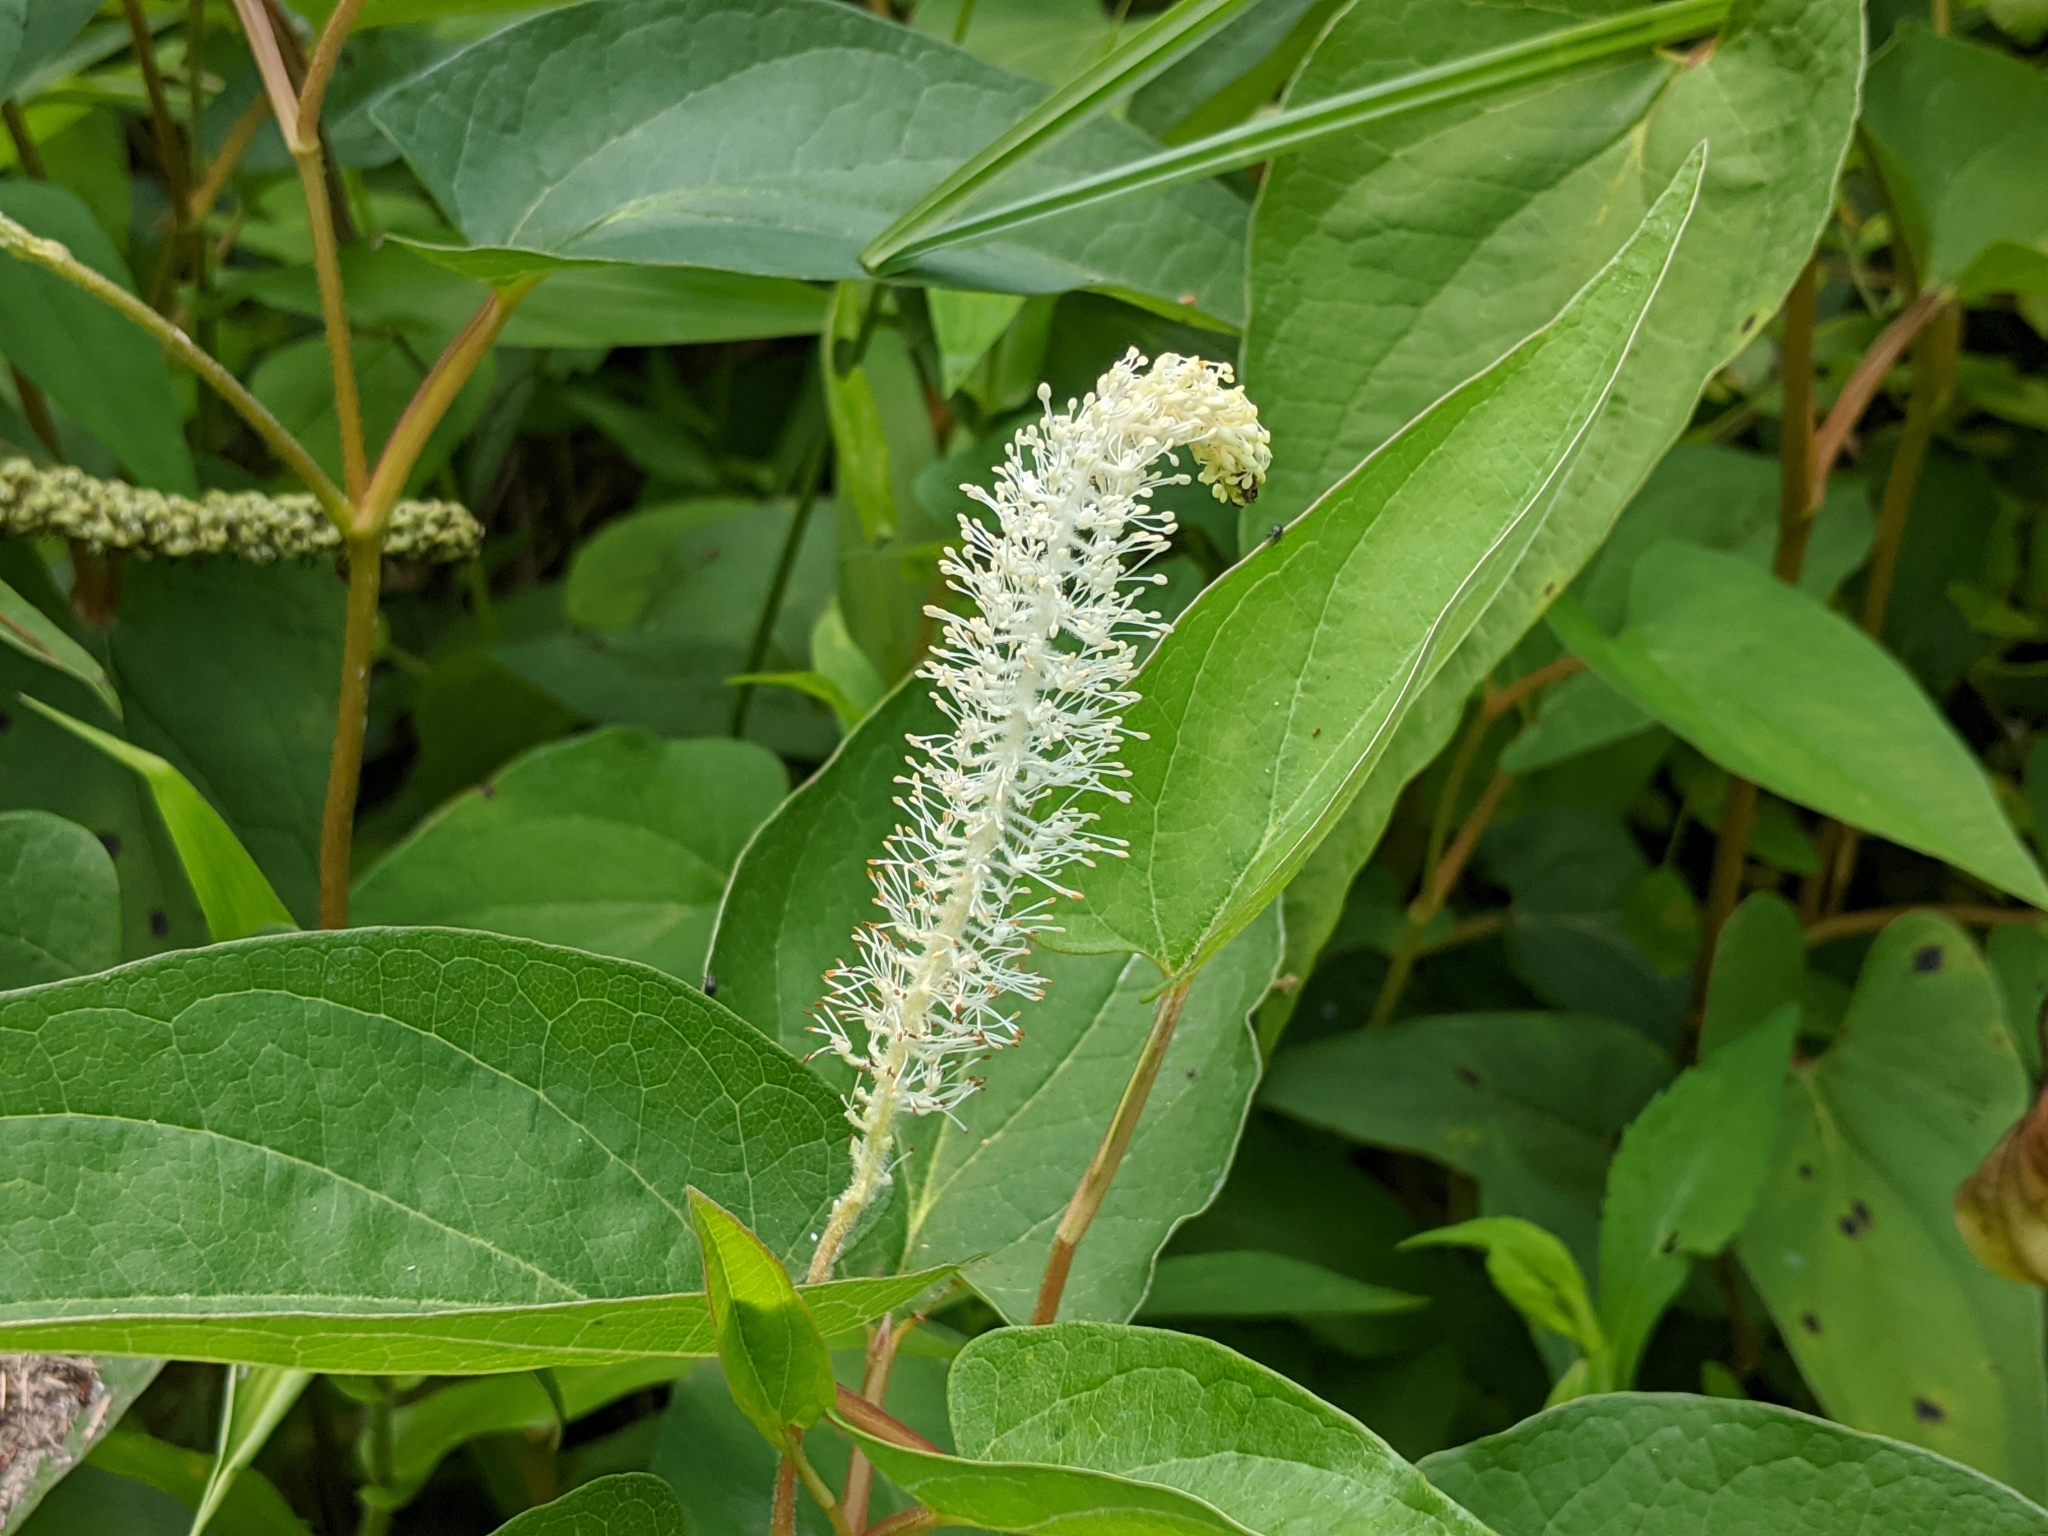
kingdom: Plantae
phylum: Tracheophyta
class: Magnoliopsida
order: Piperales
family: Saururaceae
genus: Saururus
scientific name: Saururus cernuus
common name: Lizard's-tail
